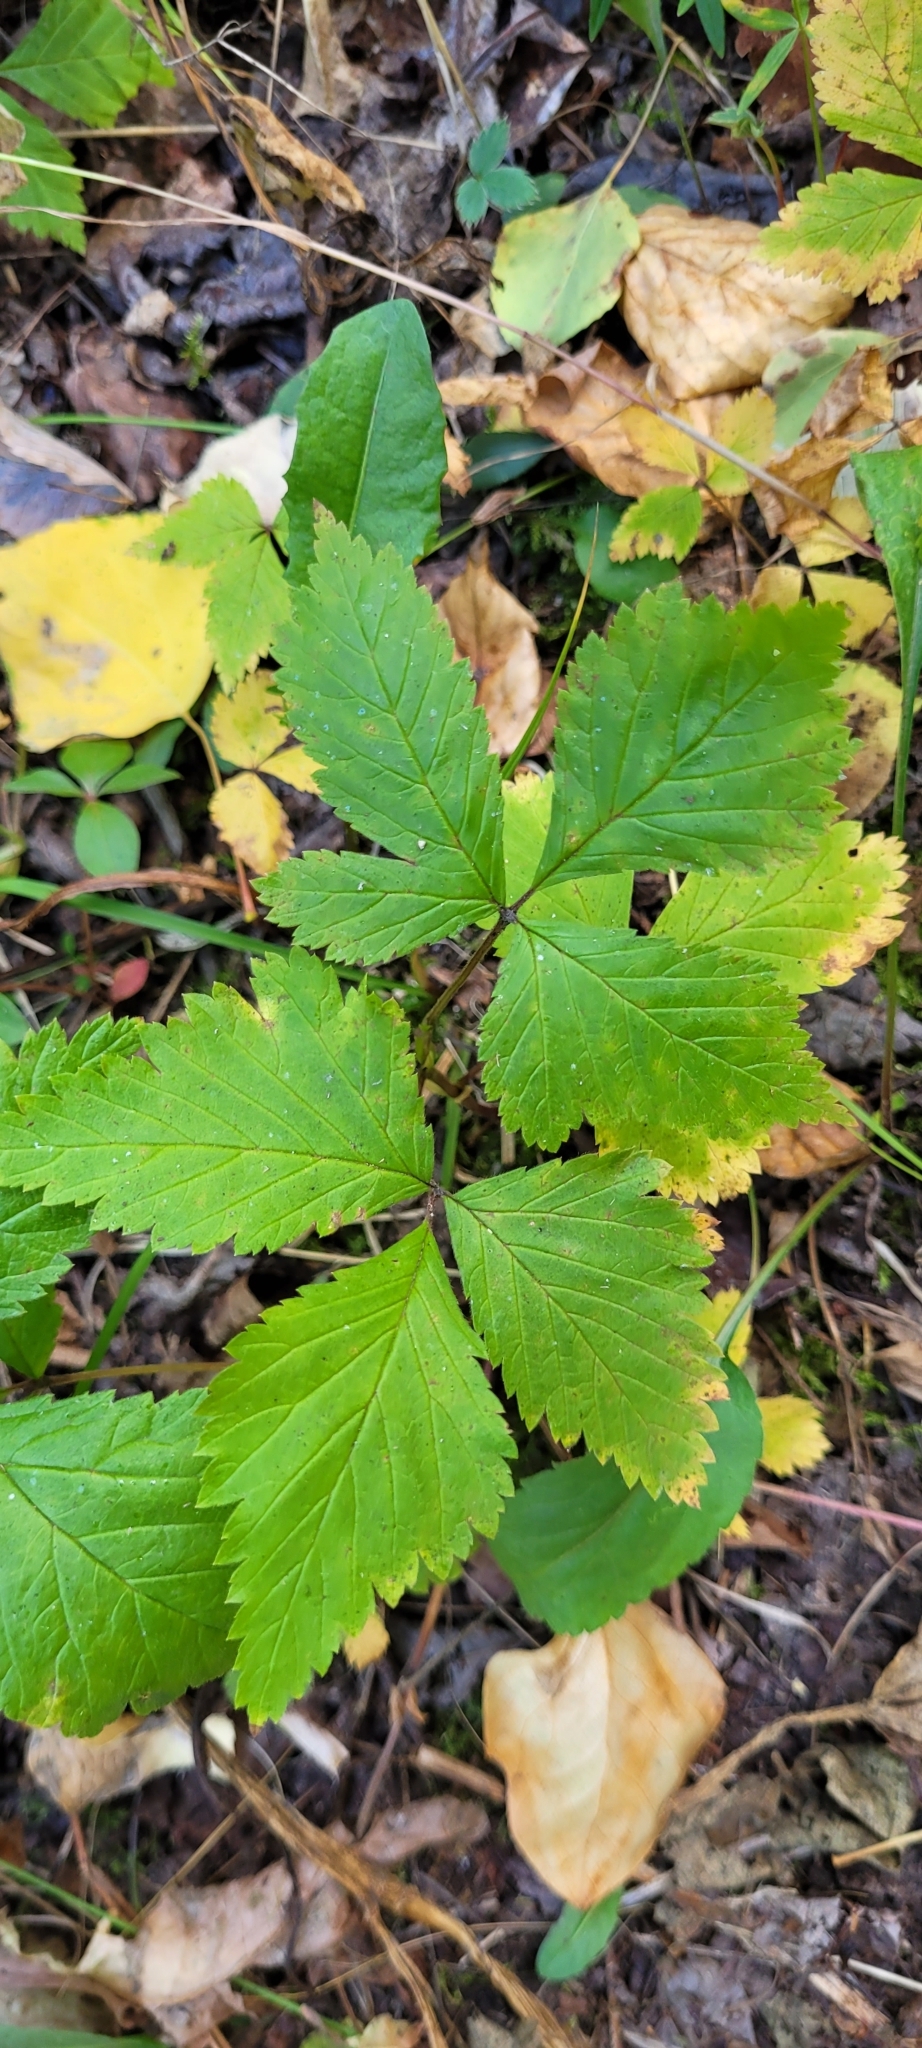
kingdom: Plantae
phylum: Tracheophyta
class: Magnoliopsida
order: Rosales
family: Rosaceae
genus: Rubus
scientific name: Rubus pubescens
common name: Dwarf raspberry
